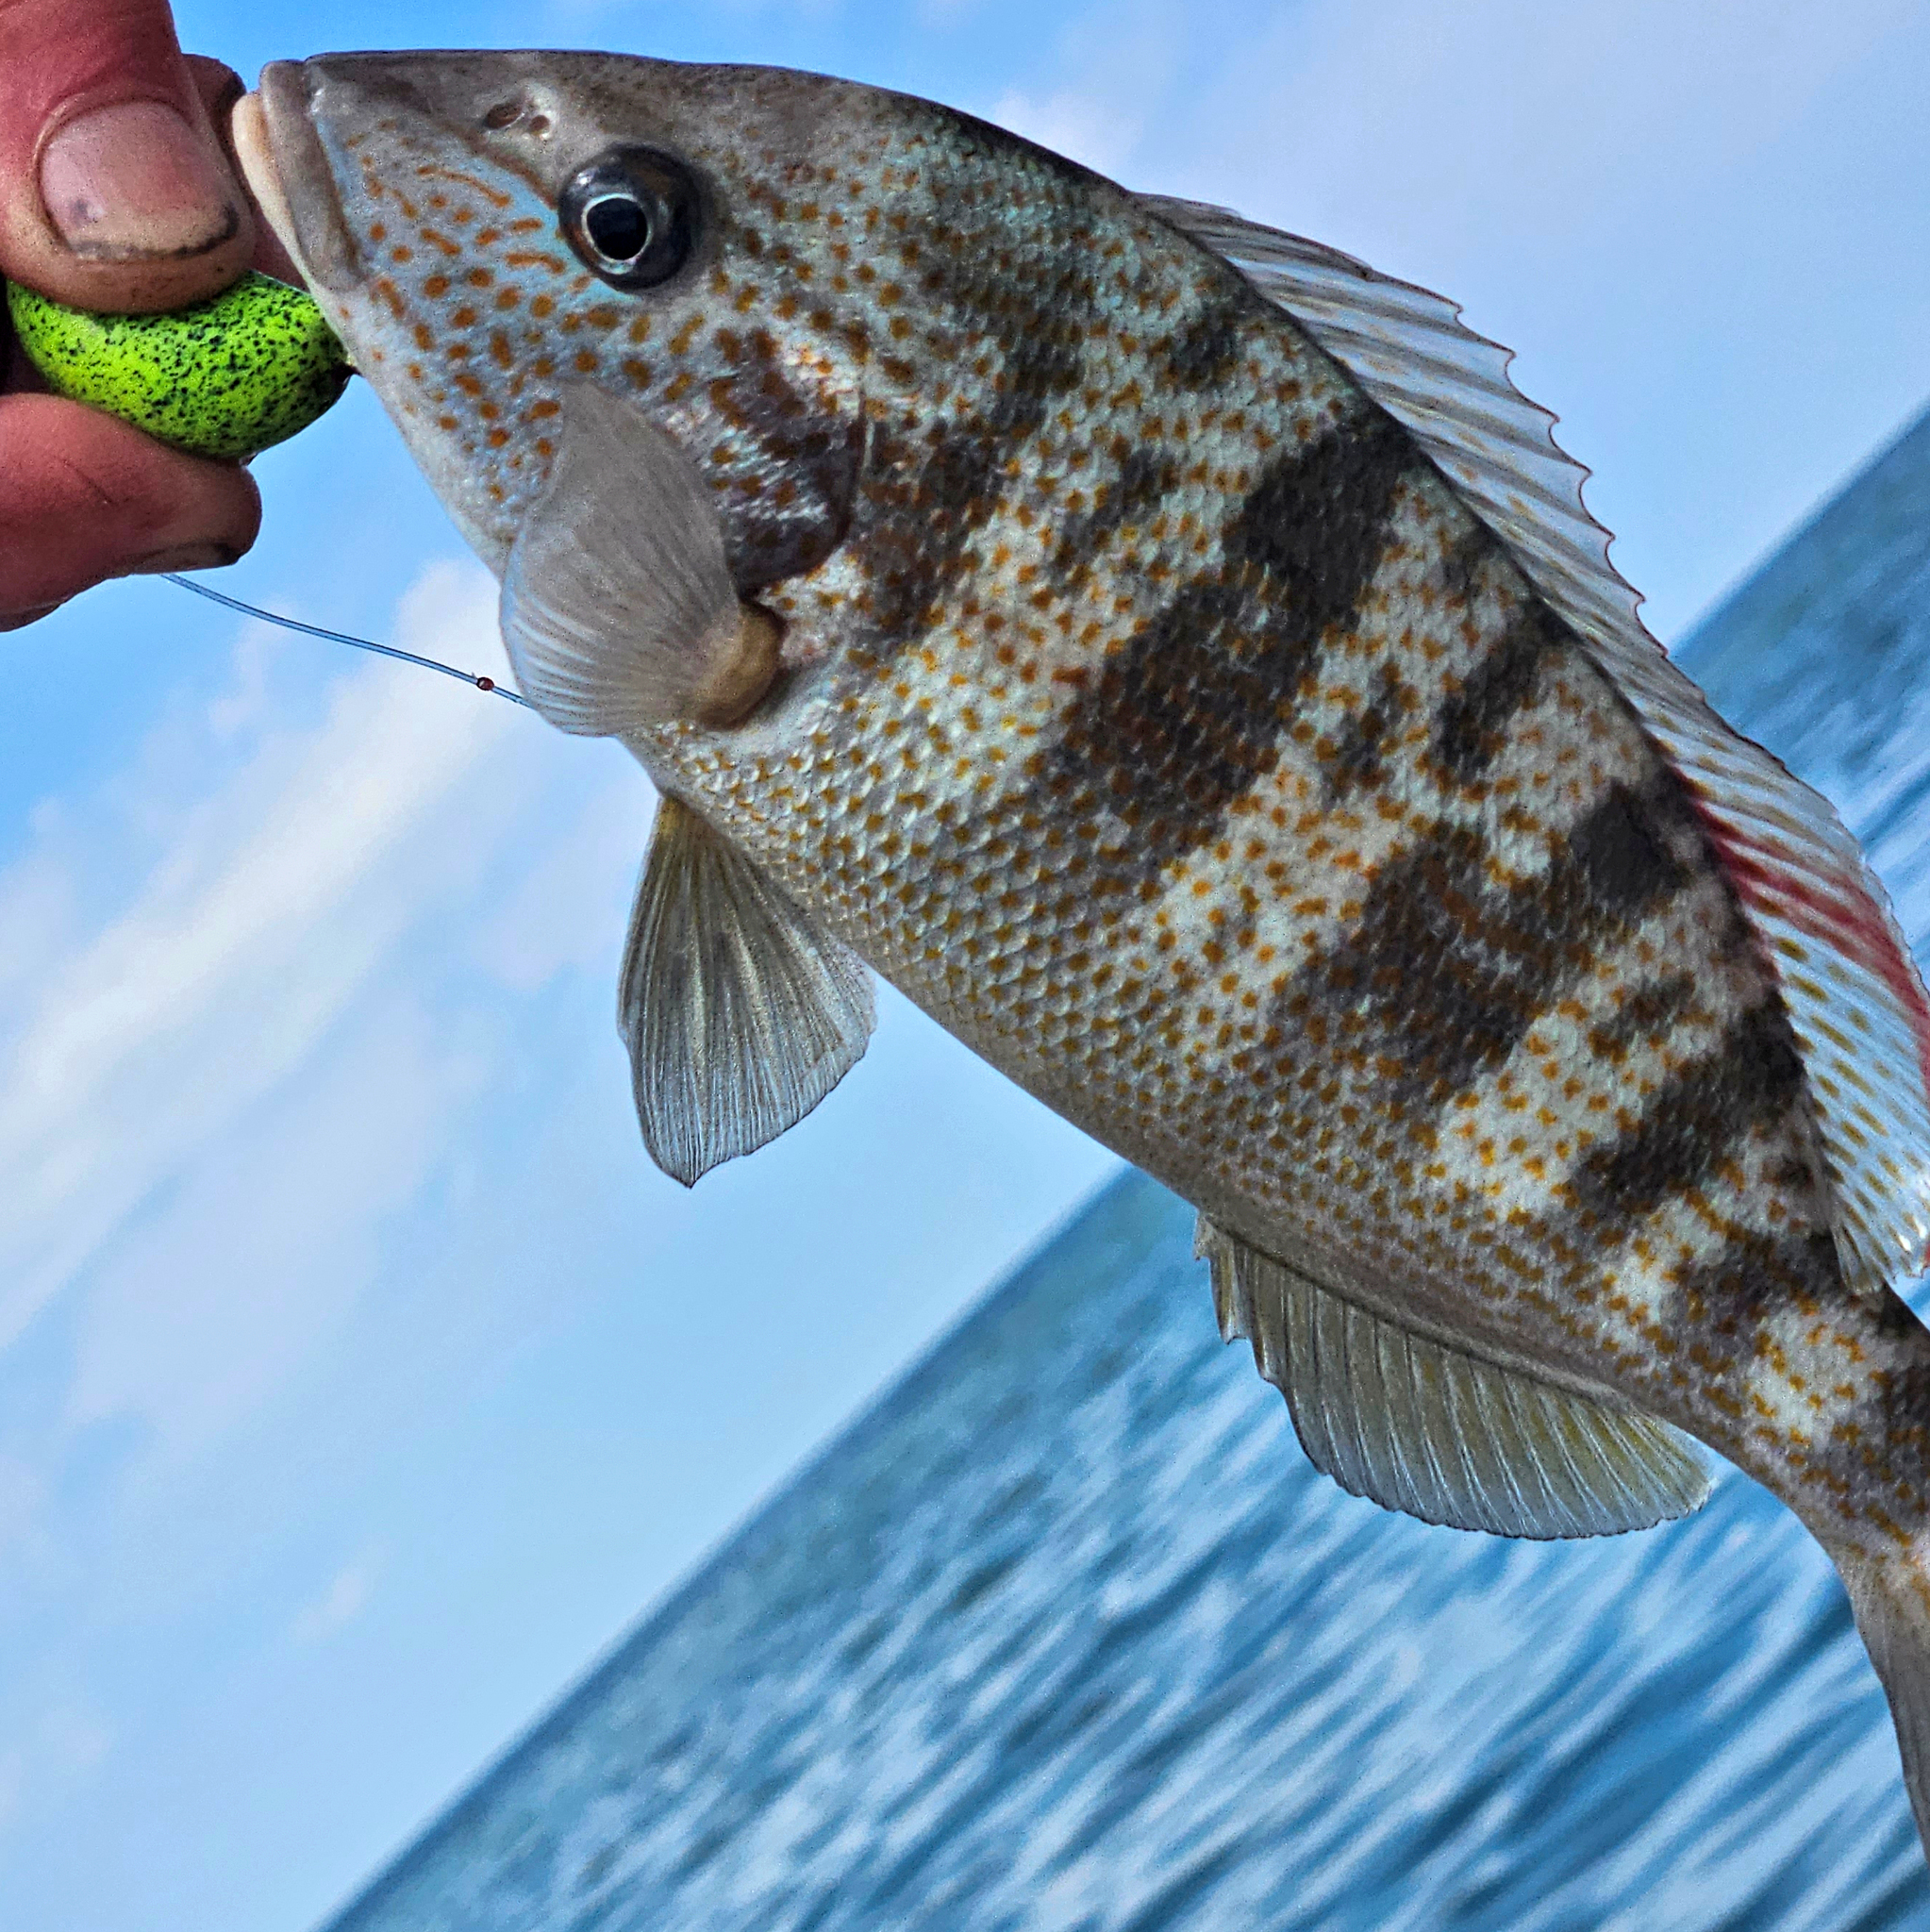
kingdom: Animalia
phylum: Chordata
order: Perciformes
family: Haemulidae
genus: Orthopristis
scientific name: Orthopristis chrysoptera
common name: Pigfish
